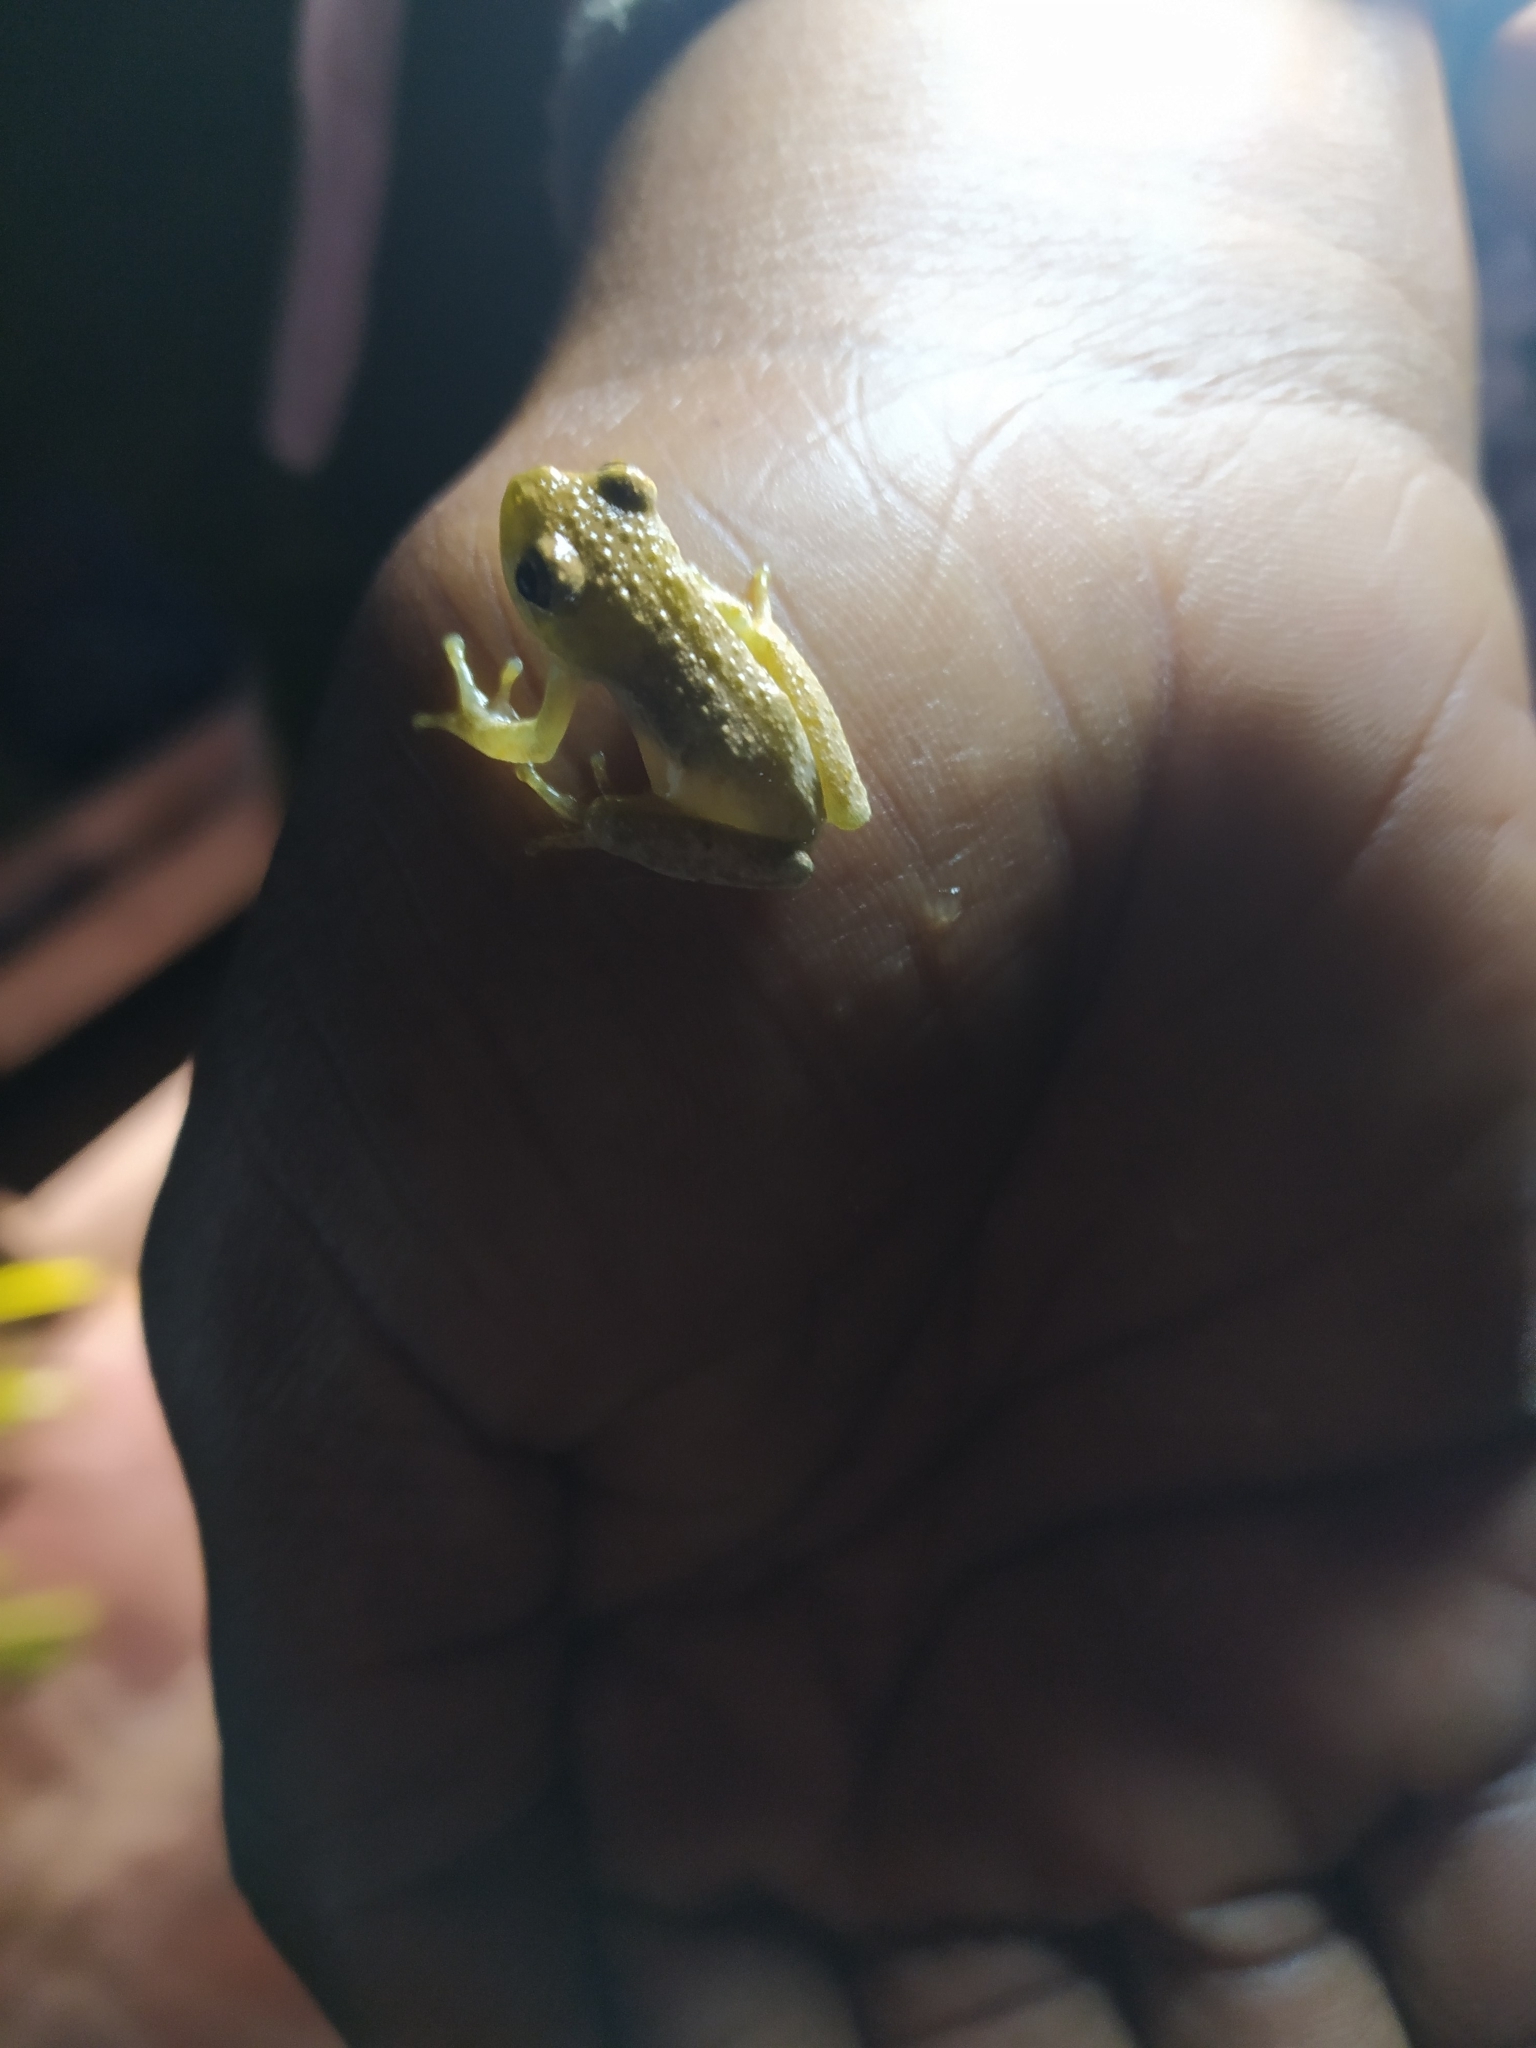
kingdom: Animalia
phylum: Chordata
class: Amphibia
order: Anura
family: Hyperoliidae
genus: Hyperolius
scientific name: Hyperolius marmoratus
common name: Painted reed frog
